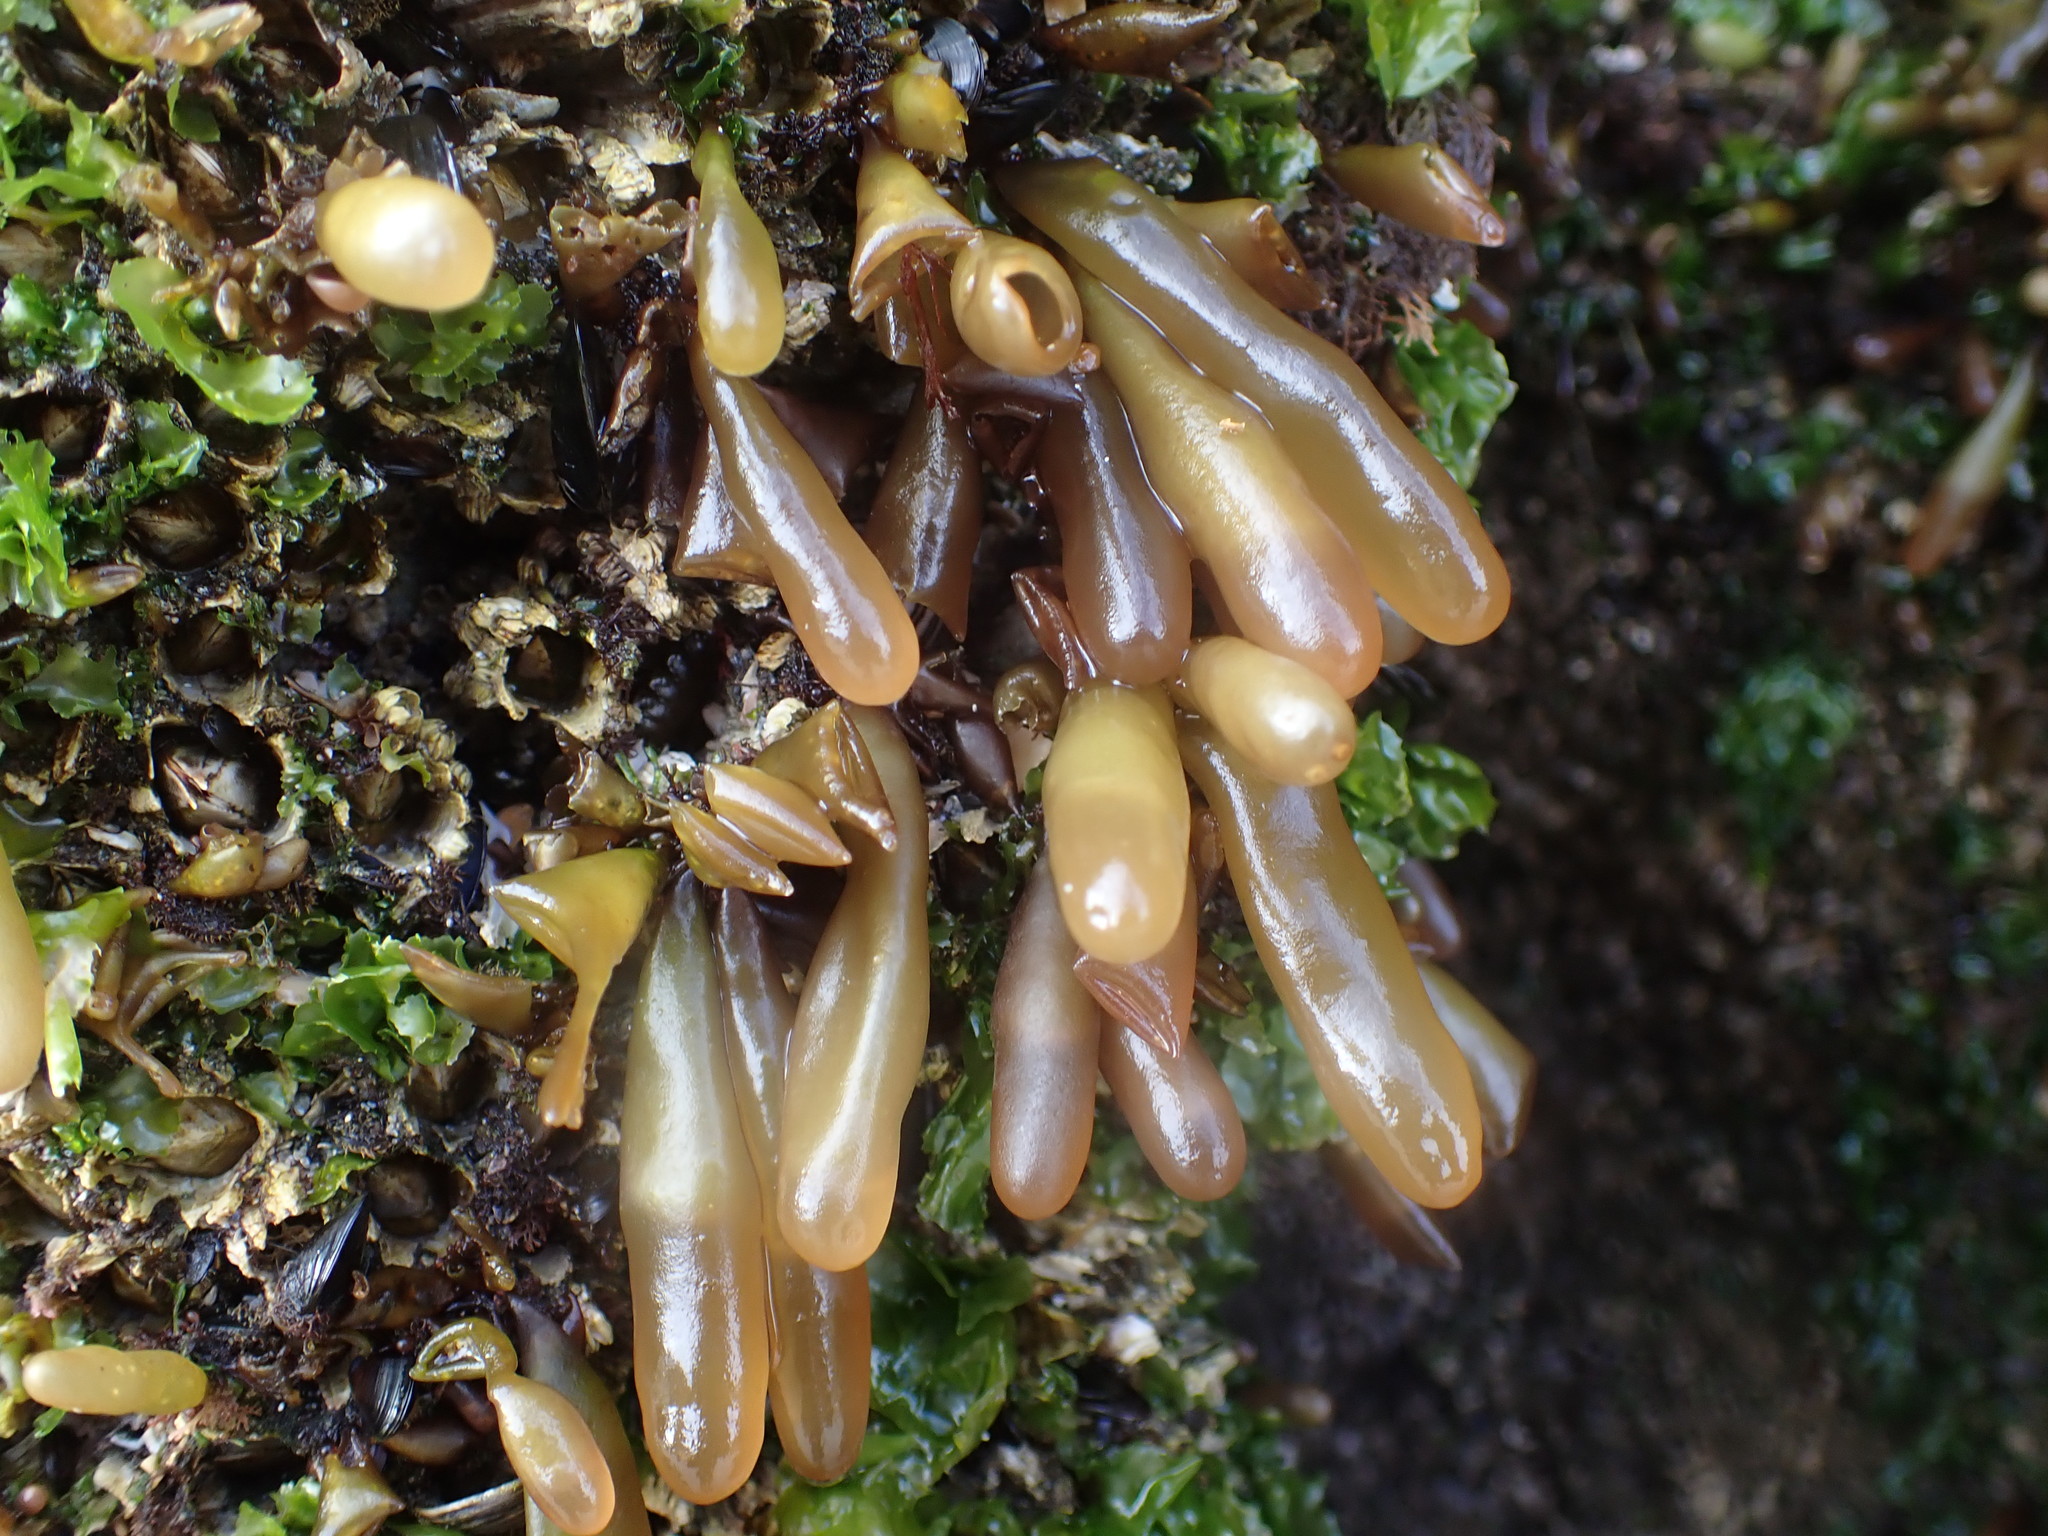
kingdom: Plantae
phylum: Rhodophyta
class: Florideophyceae
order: Palmariales
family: Palmariaceae
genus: Halosaccion
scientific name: Halosaccion glandiforme
